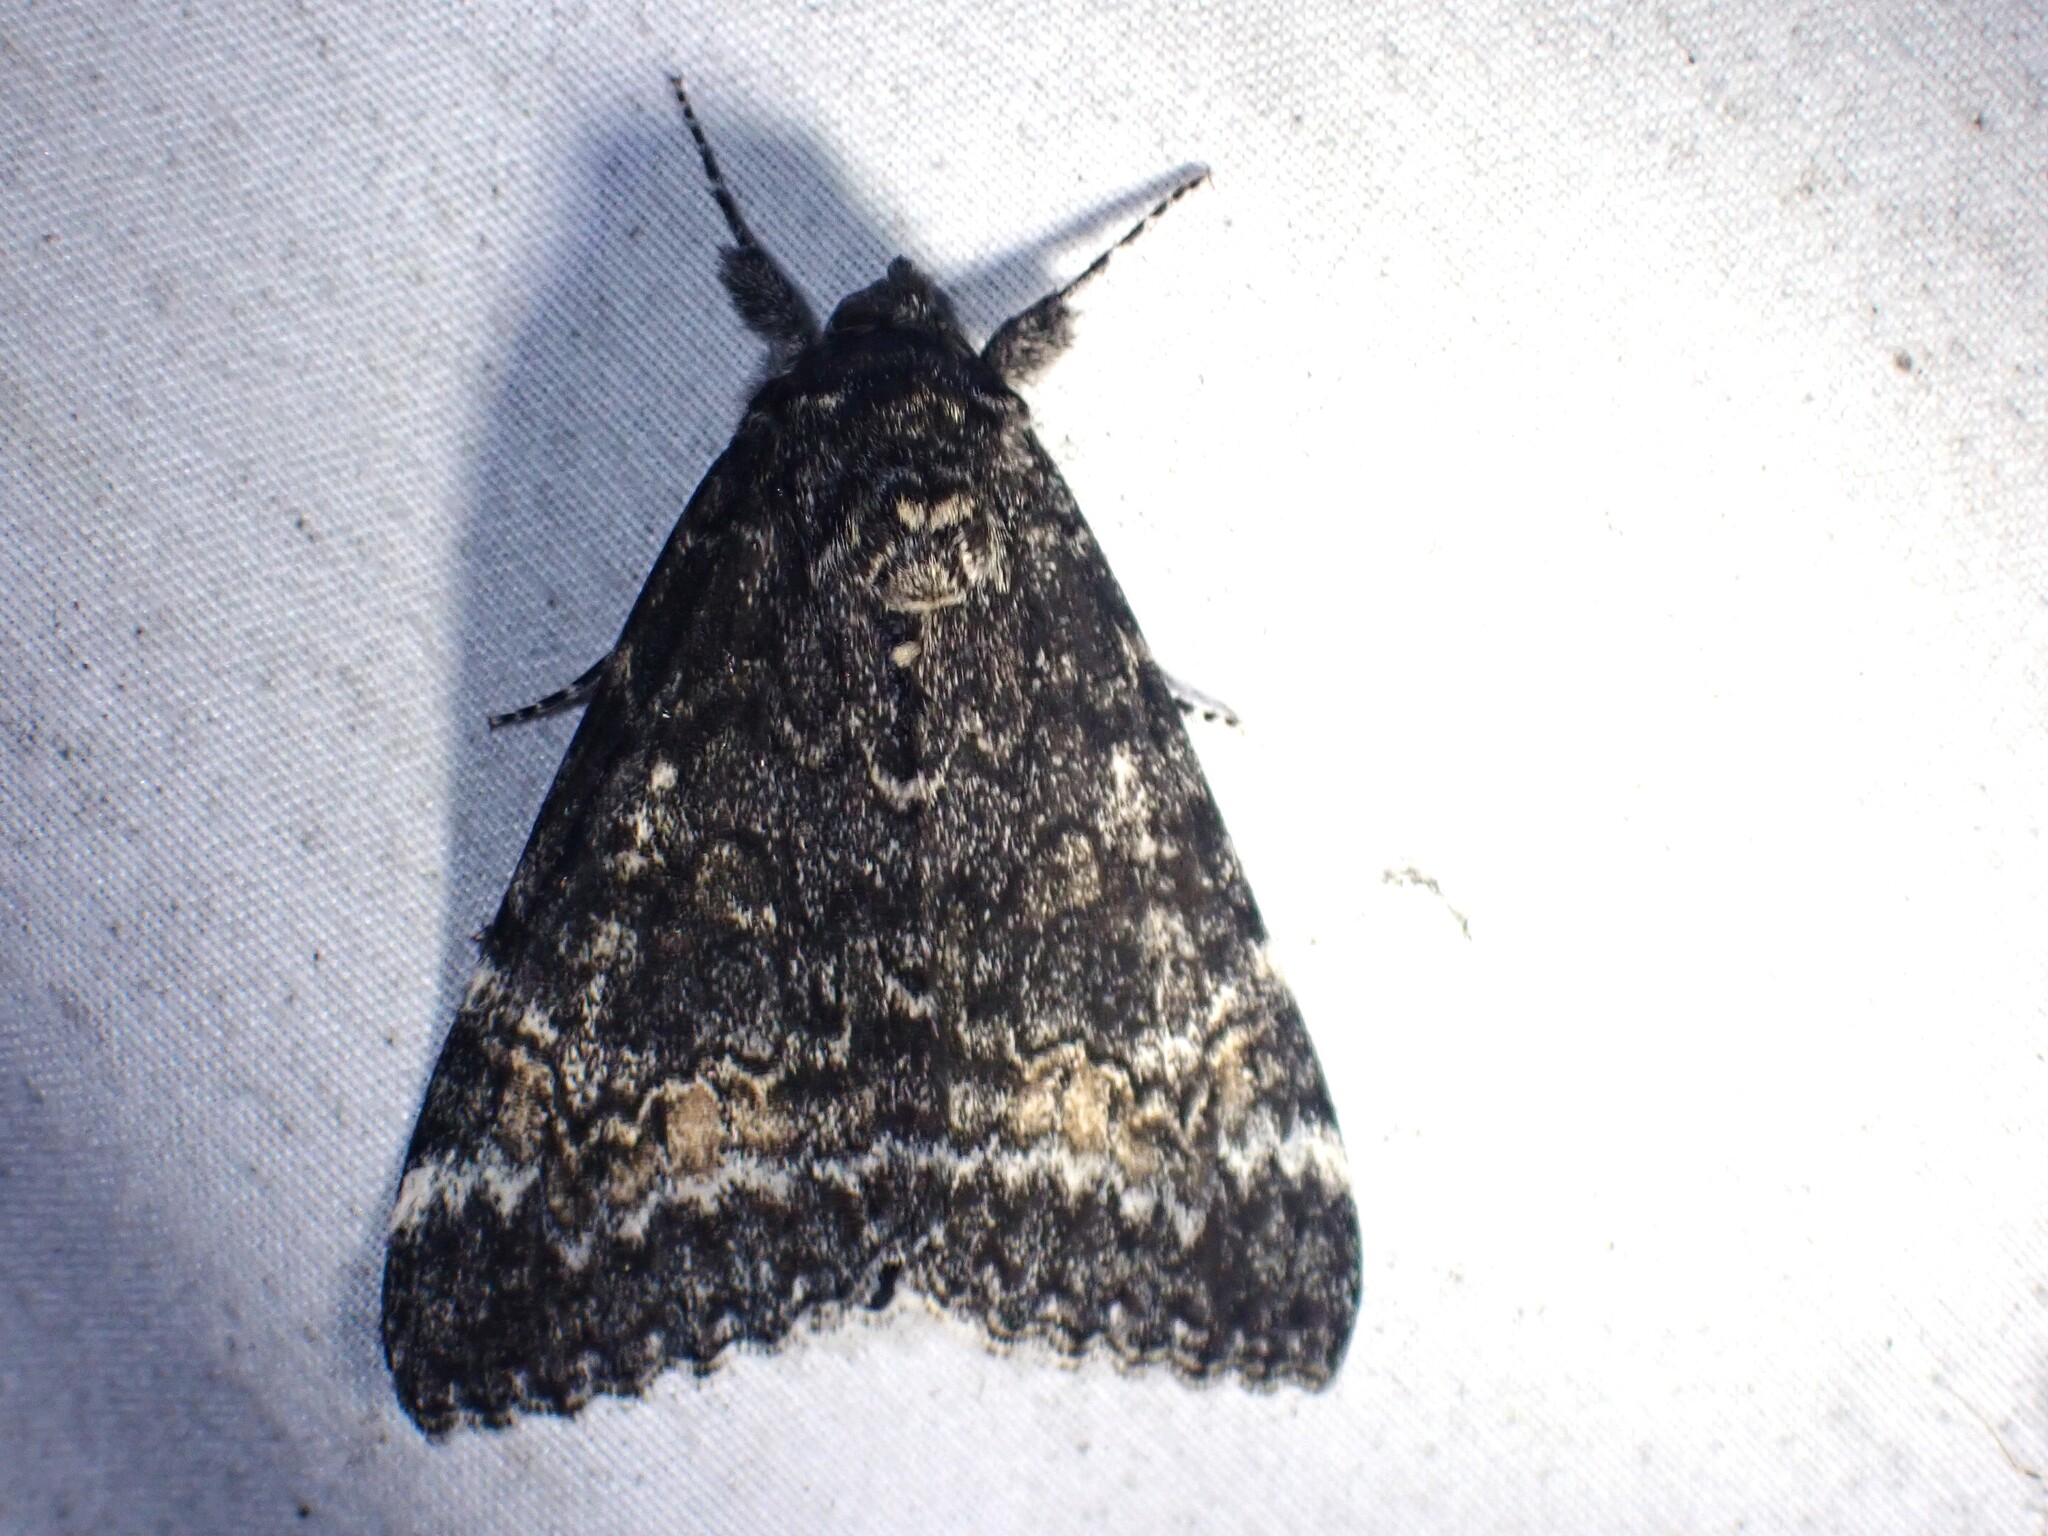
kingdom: Animalia
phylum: Arthropoda
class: Insecta
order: Lepidoptera
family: Erebidae
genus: Catocala
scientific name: Catocala briseis
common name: Briseis underwing
